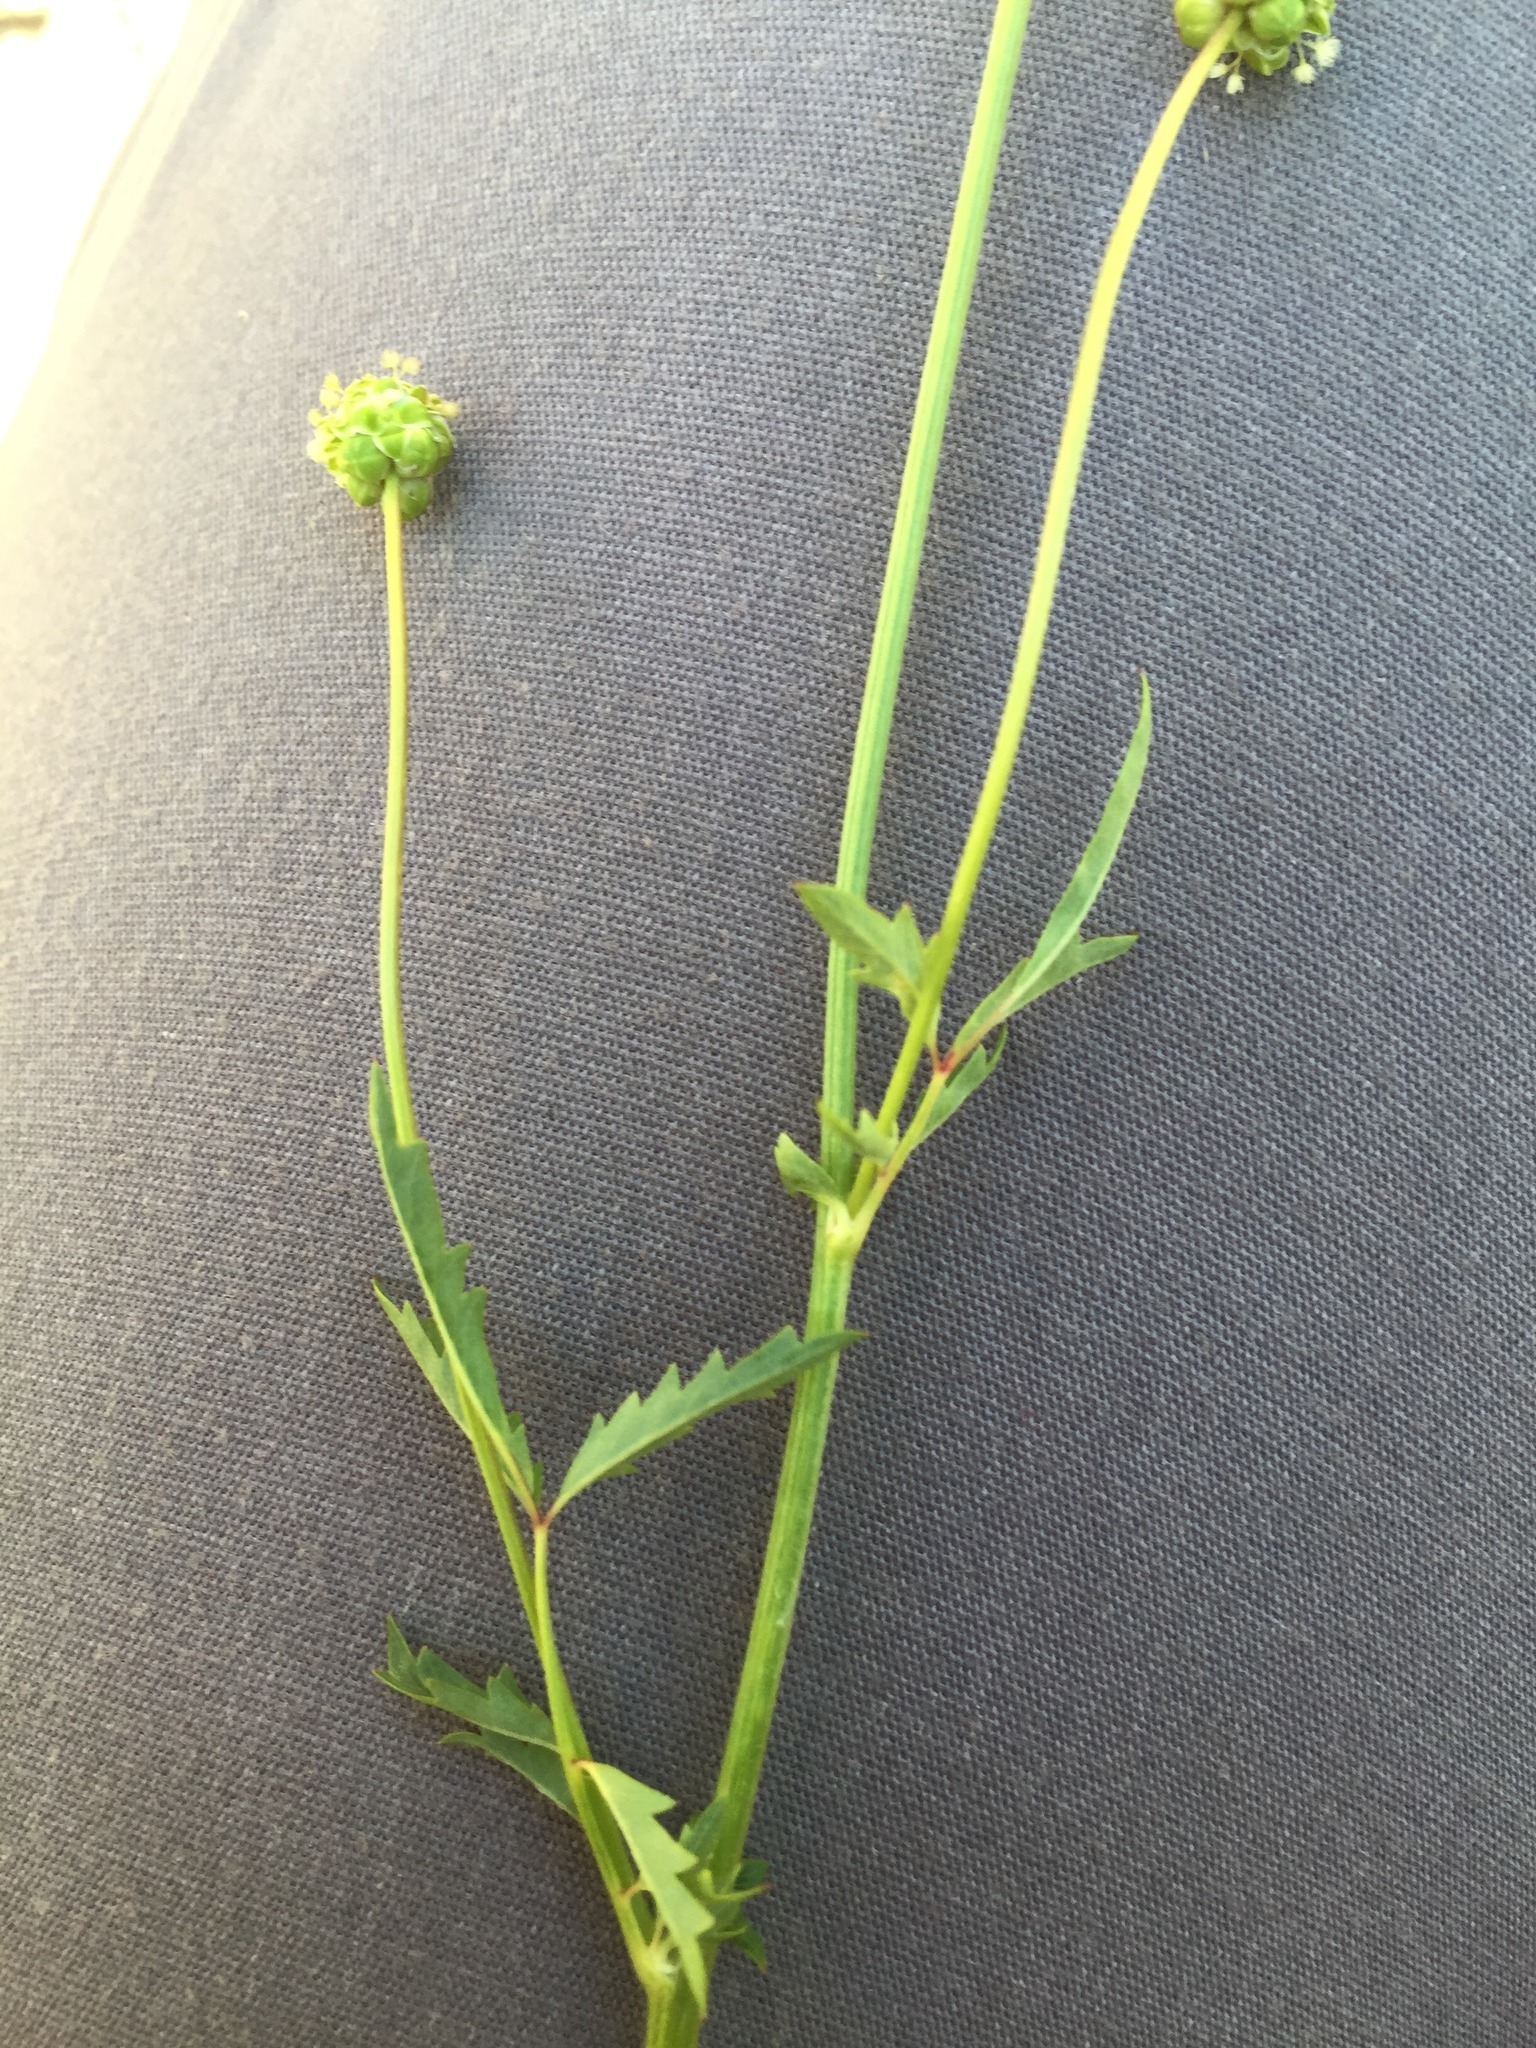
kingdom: Plantae
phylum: Tracheophyta
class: Magnoliopsida
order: Rosales
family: Rosaceae
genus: Filipendula
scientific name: Filipendula vulgaris
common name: Dropwort
